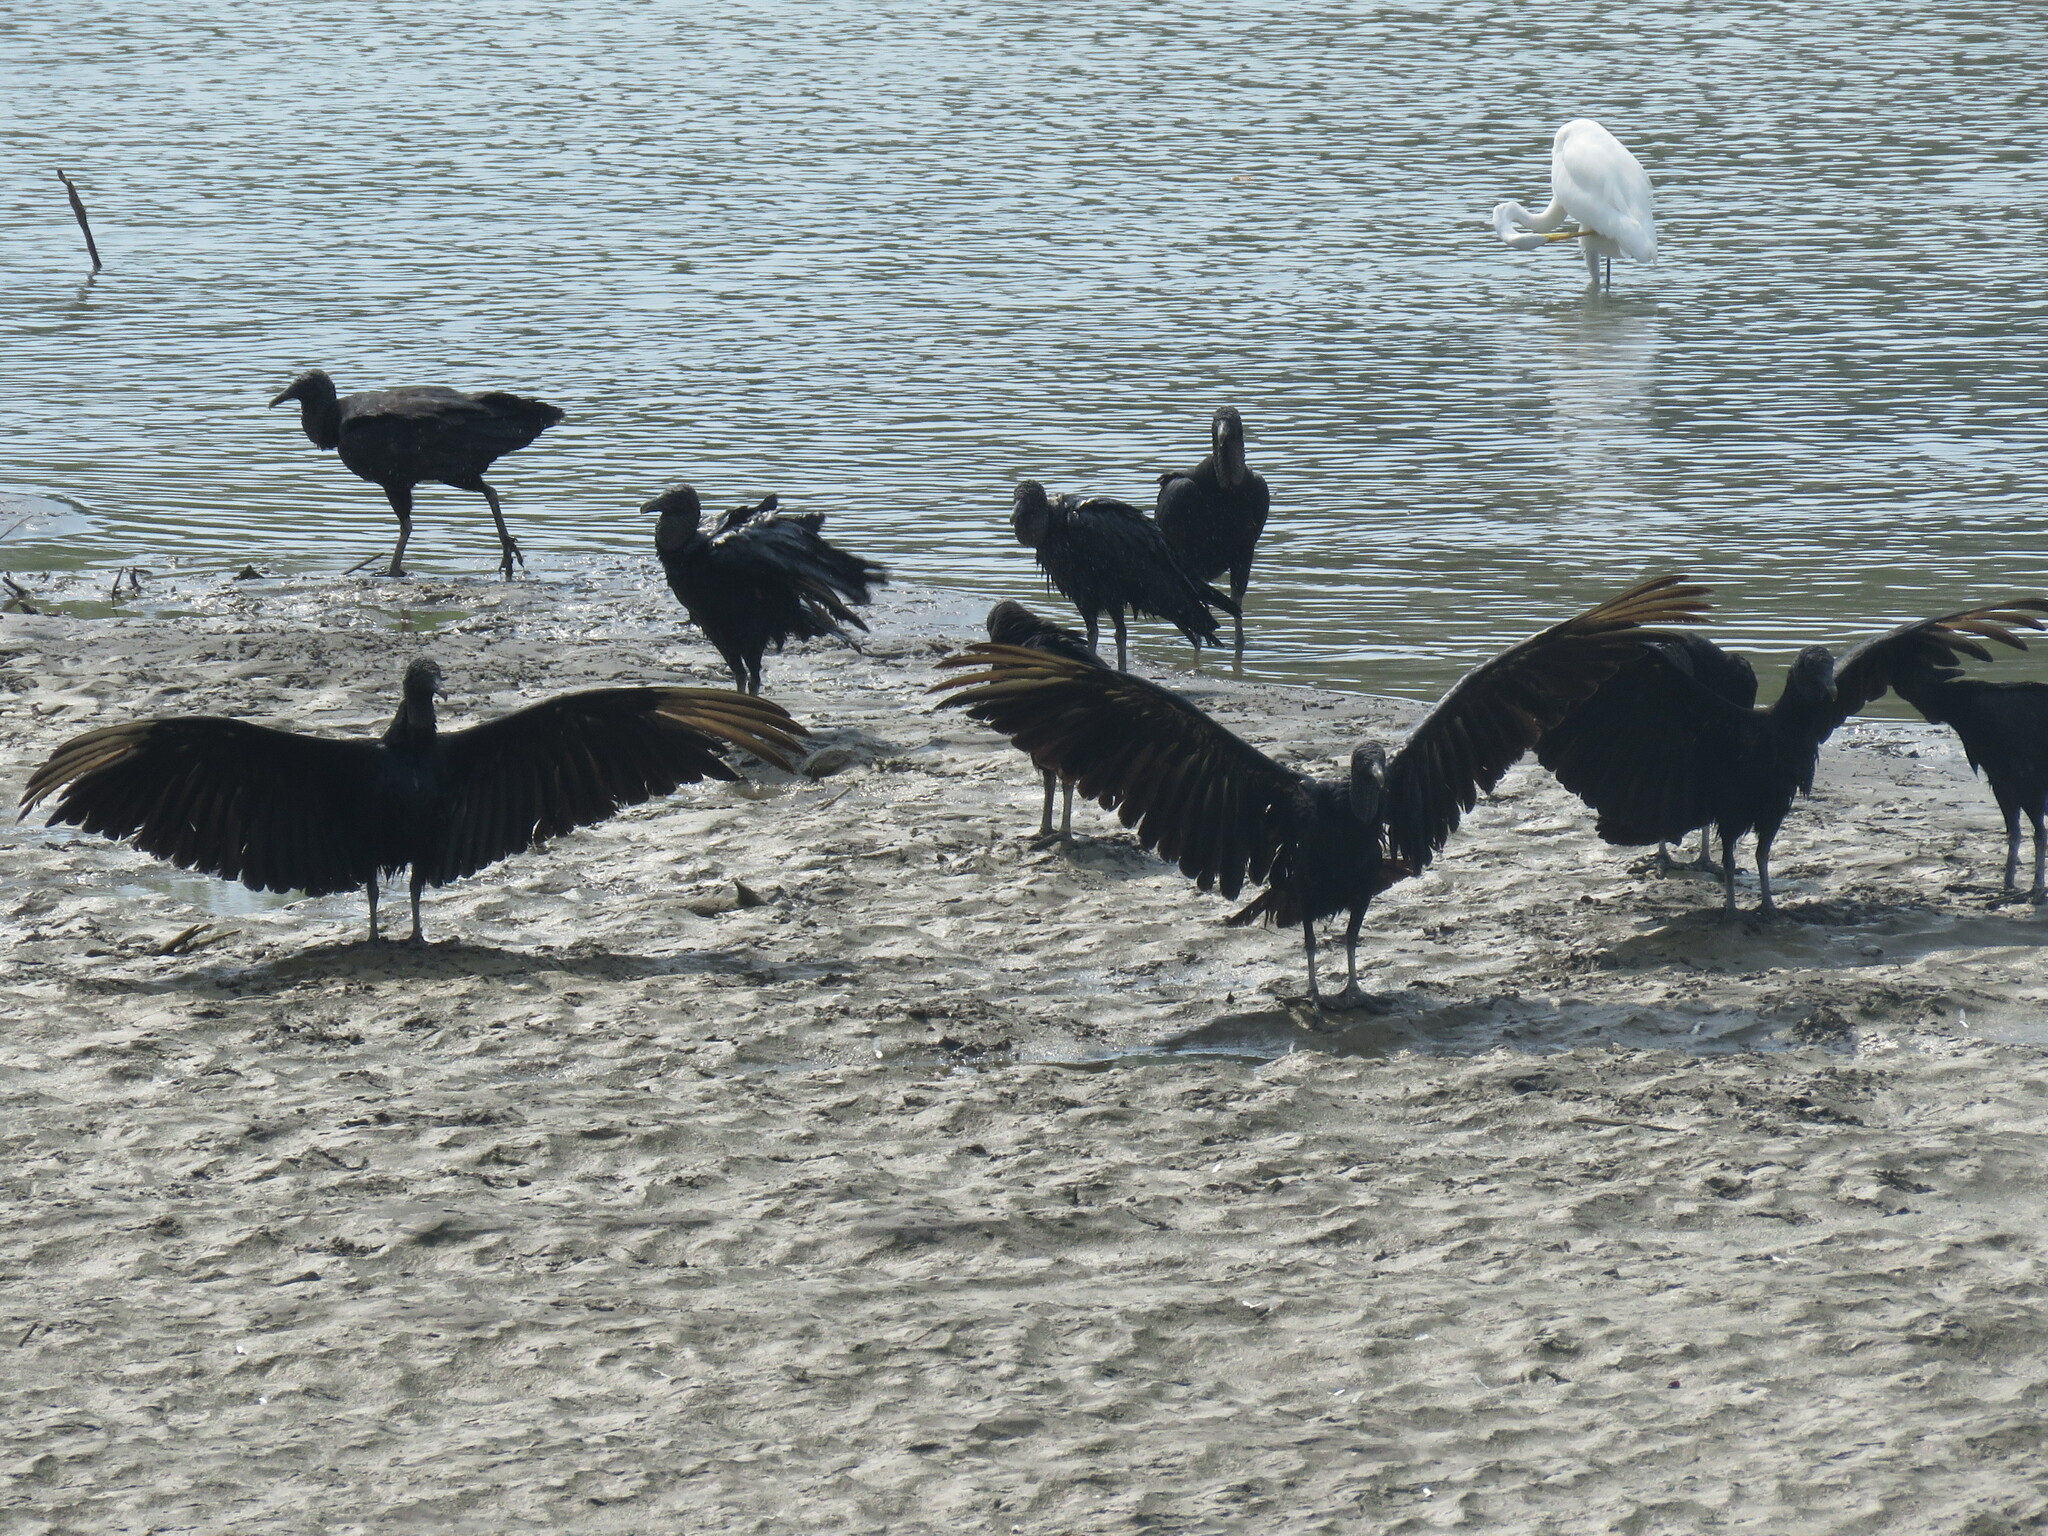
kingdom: Animalia
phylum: Chordata
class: Aves
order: Accipitriformes
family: Cathartidae
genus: Coragyps
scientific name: Coragyps atratus
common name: Black vulture
